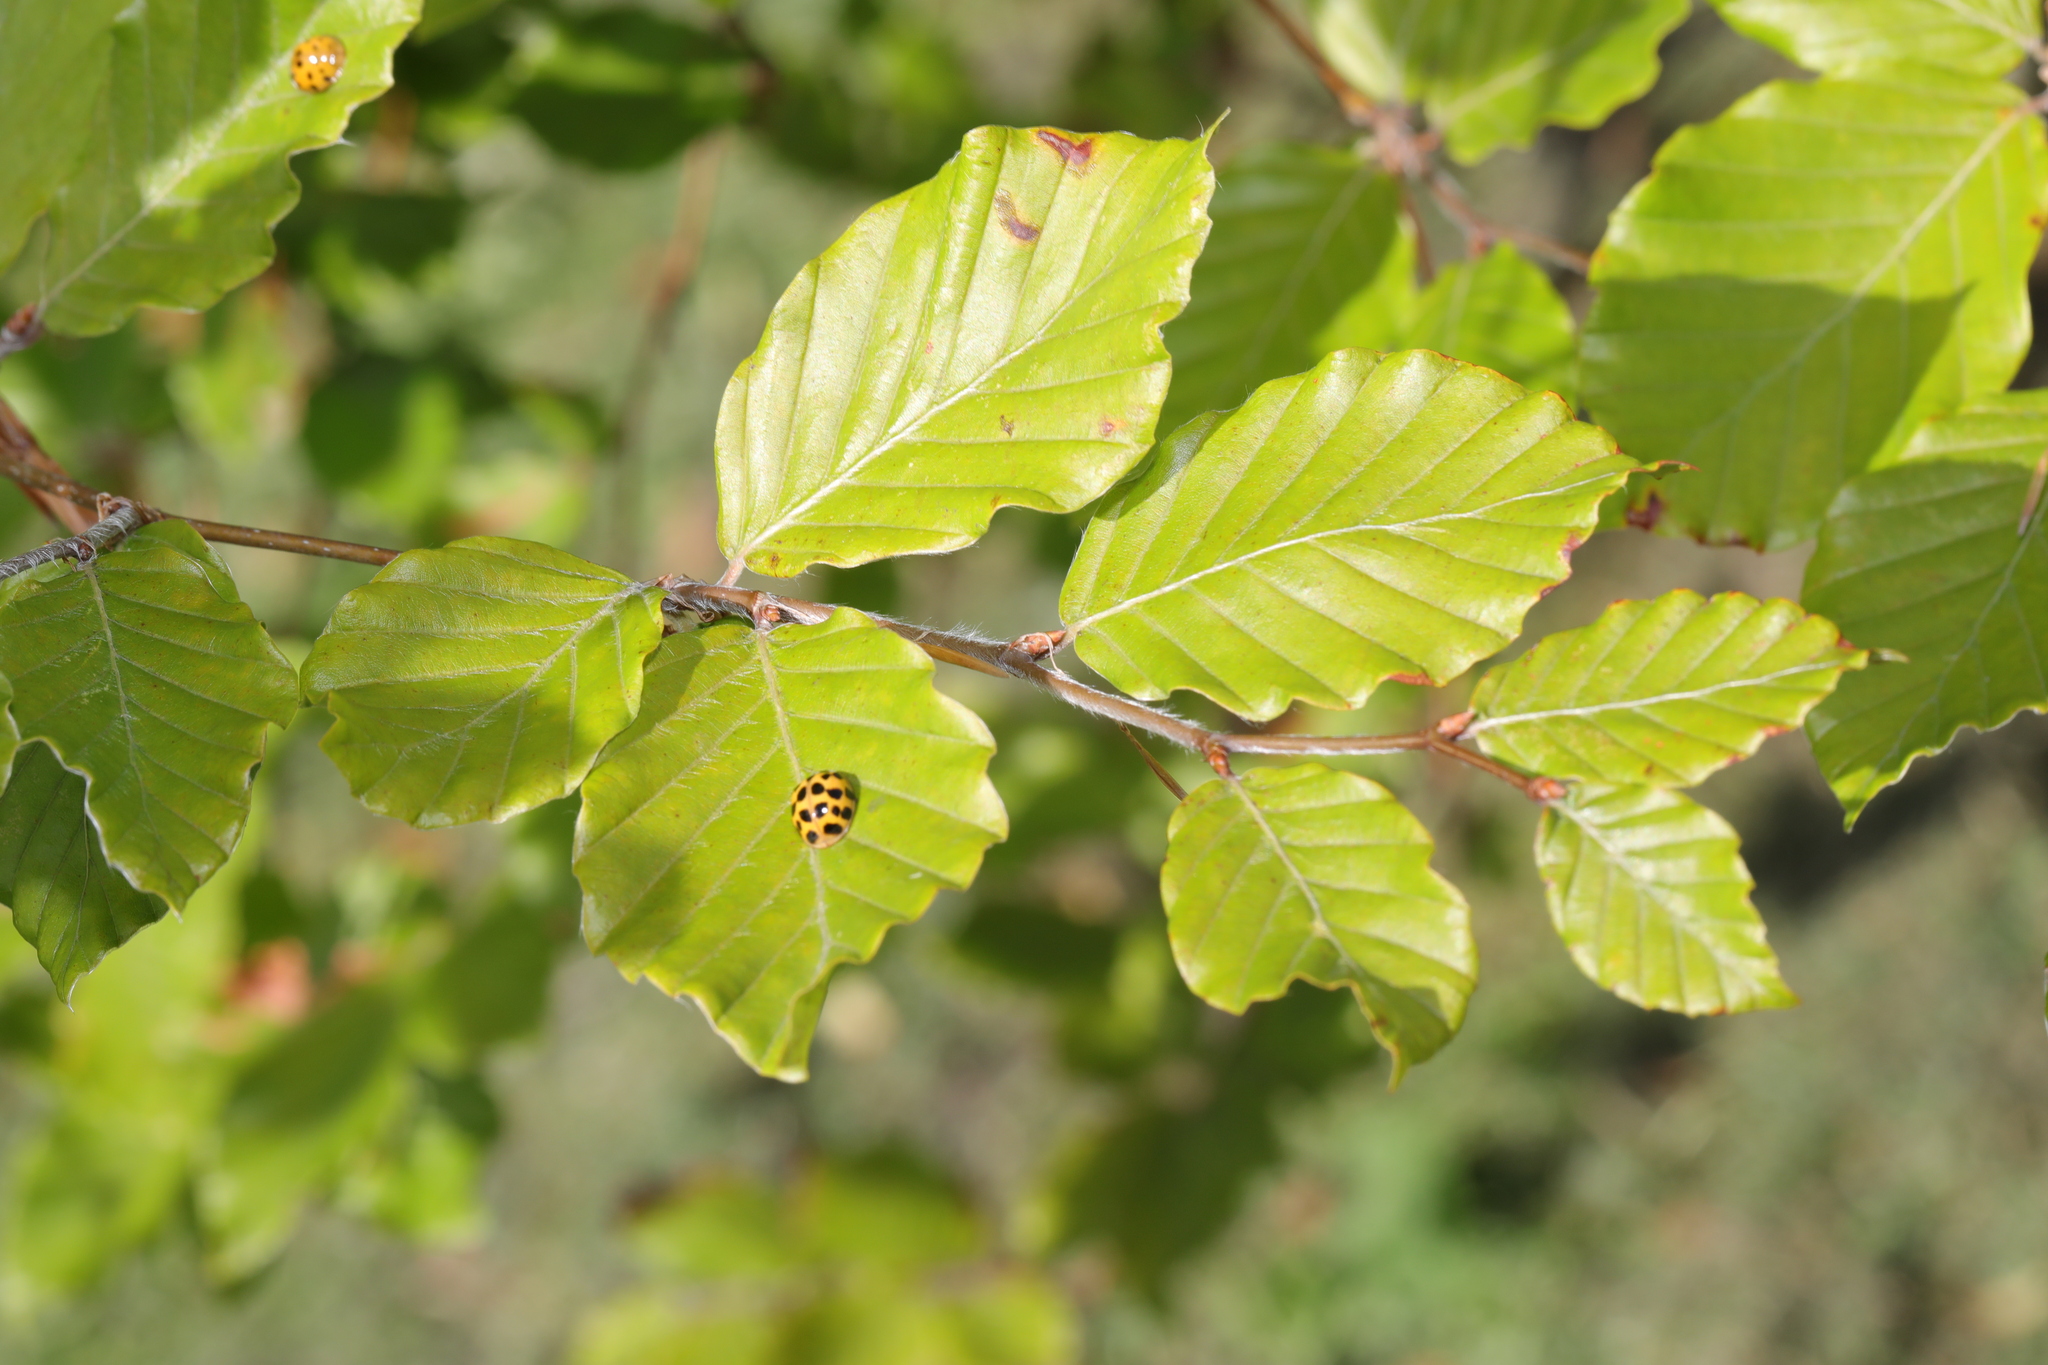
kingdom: Plantae
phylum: Tracheophyta
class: Magnoliopsida
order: Fagales
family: Fagaceae
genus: Fagus
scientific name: Fagus sylvatica
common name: Beech
